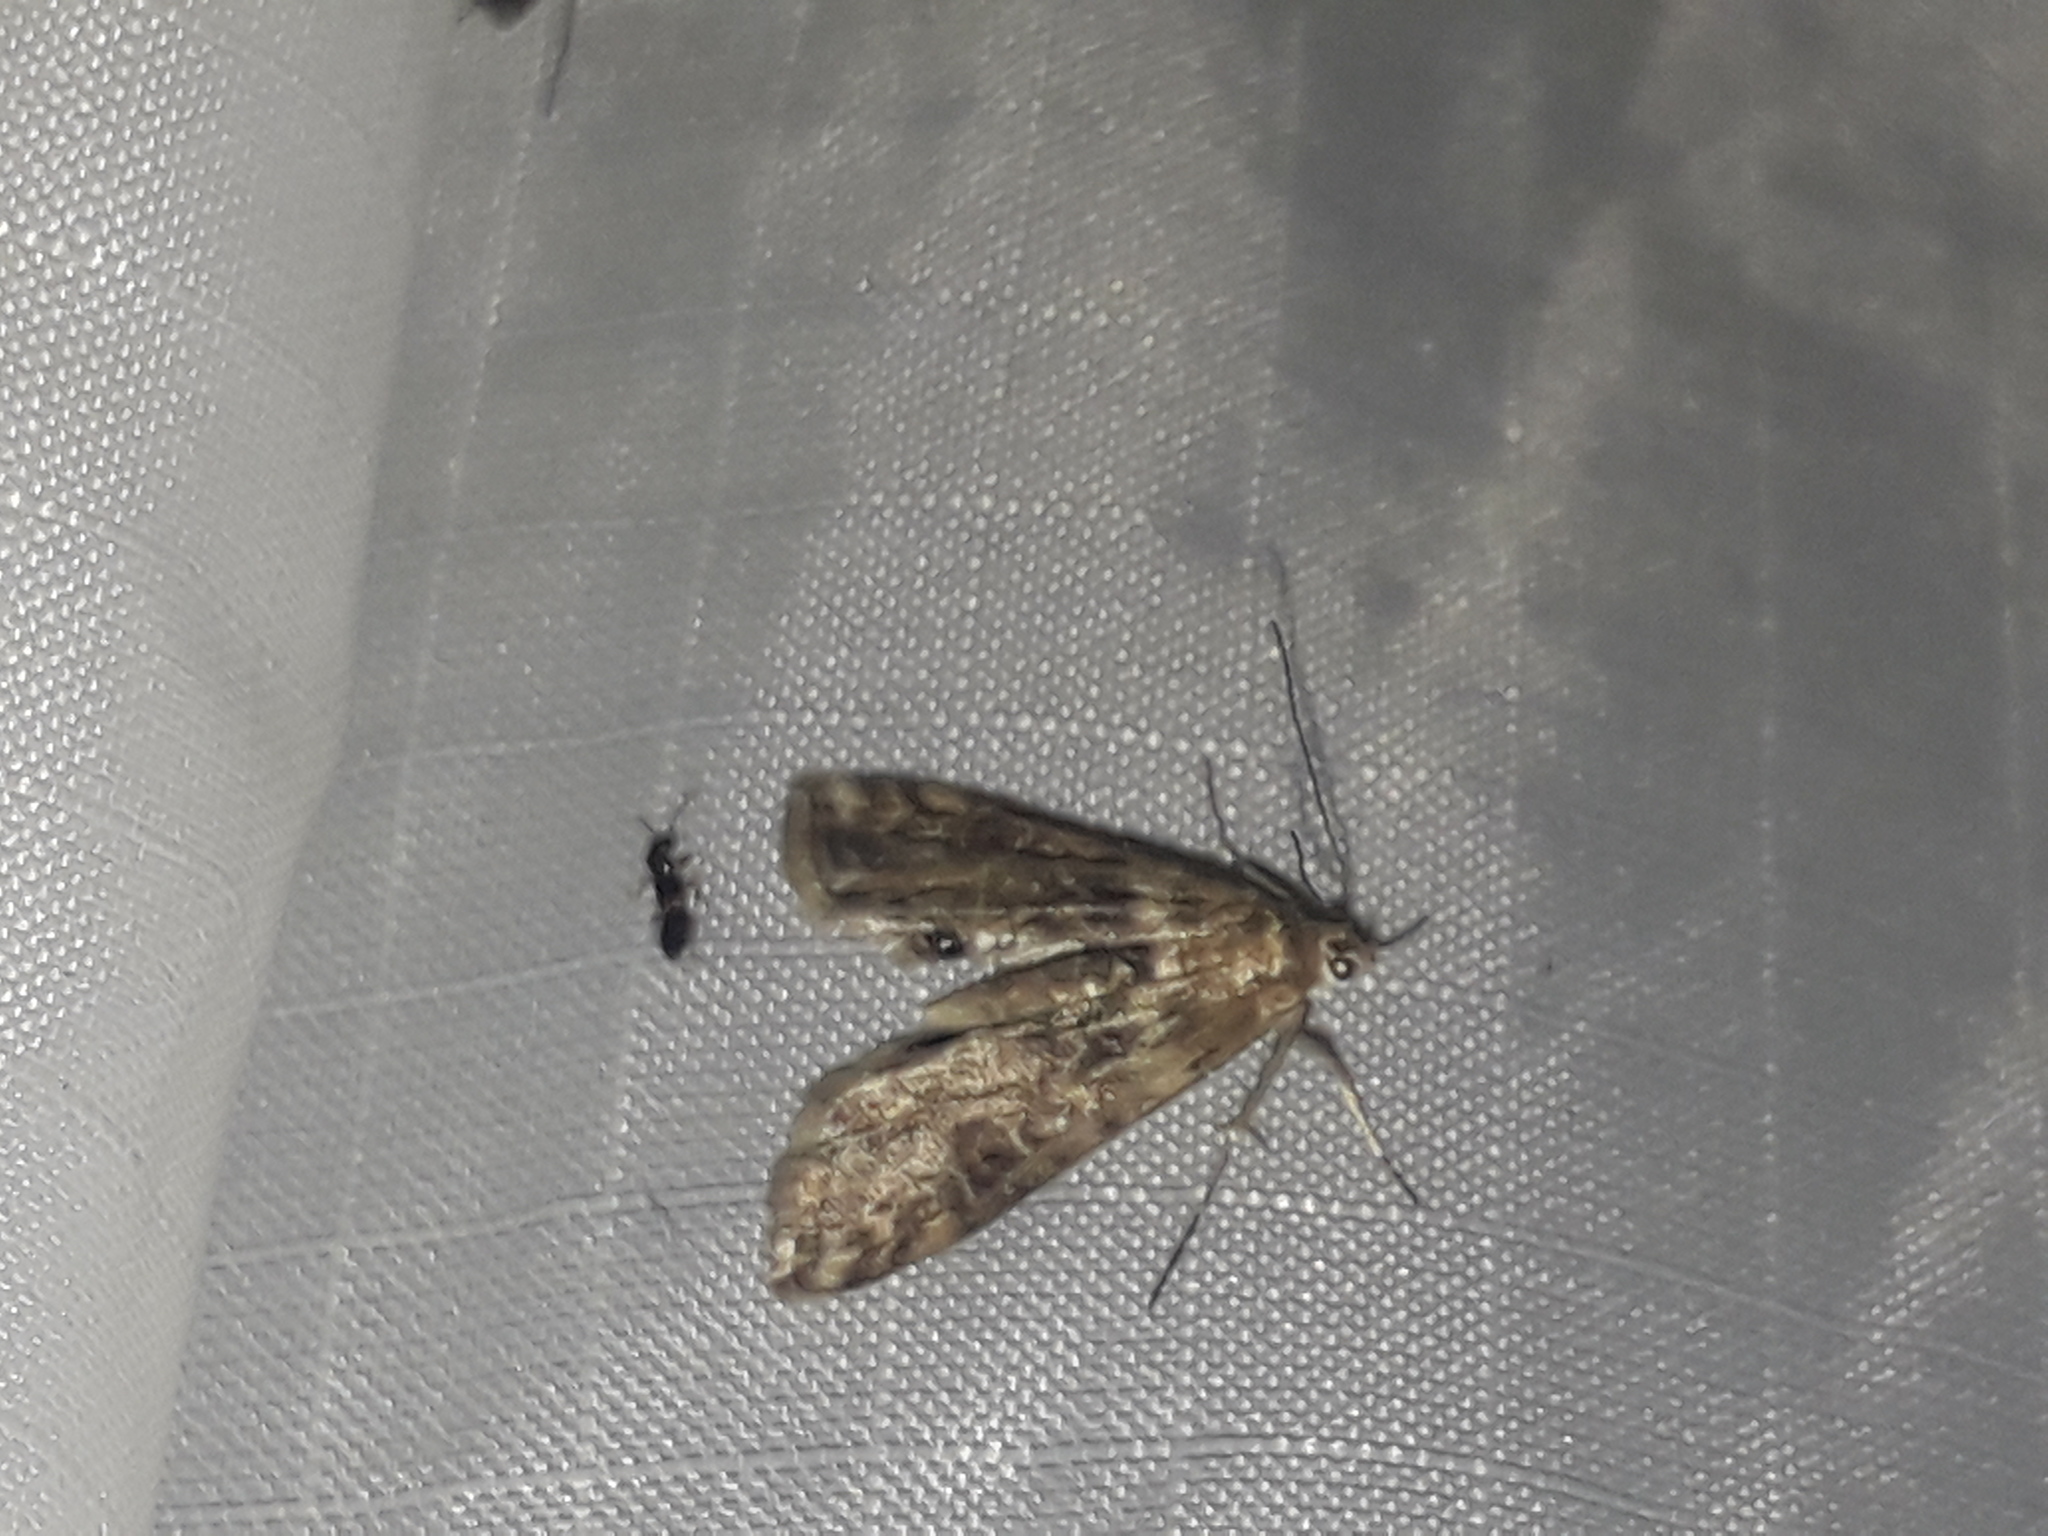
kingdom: Animalia
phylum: Arthropoda
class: Insecta
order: Lepidoptera
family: Crambidae
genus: Cataclysta
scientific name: Cataclysta lemnata
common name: Small china-mark
